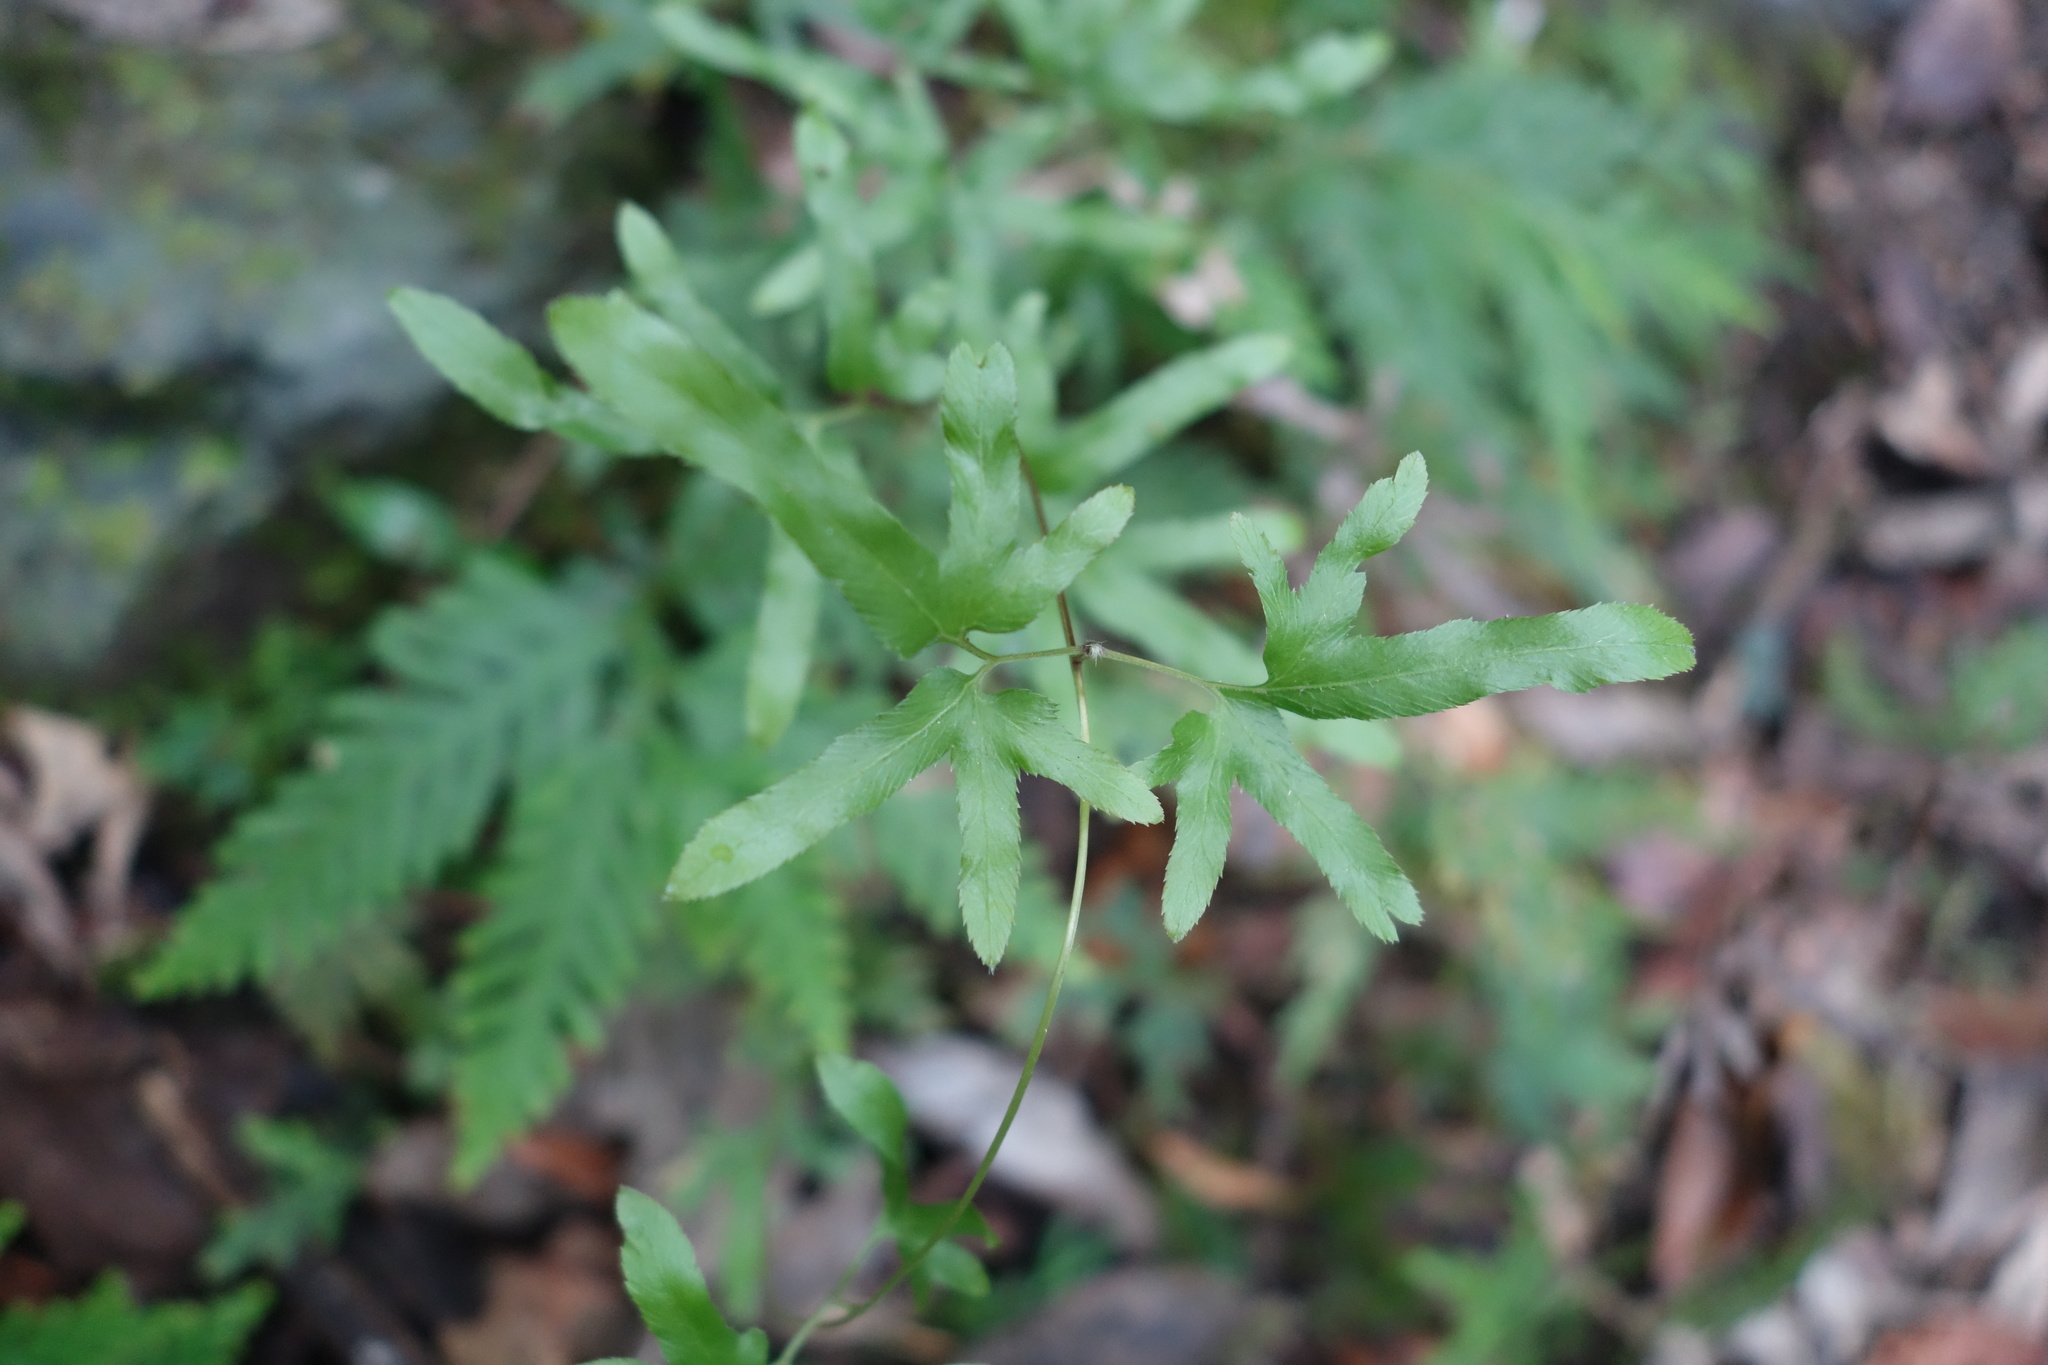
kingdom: Plantae
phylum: Tracheophyta
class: Polypodiopsida
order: Schizaeales
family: Lygodiaceae
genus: Lygodium
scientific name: Lygodium japonicum
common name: Japanese climbing fern
